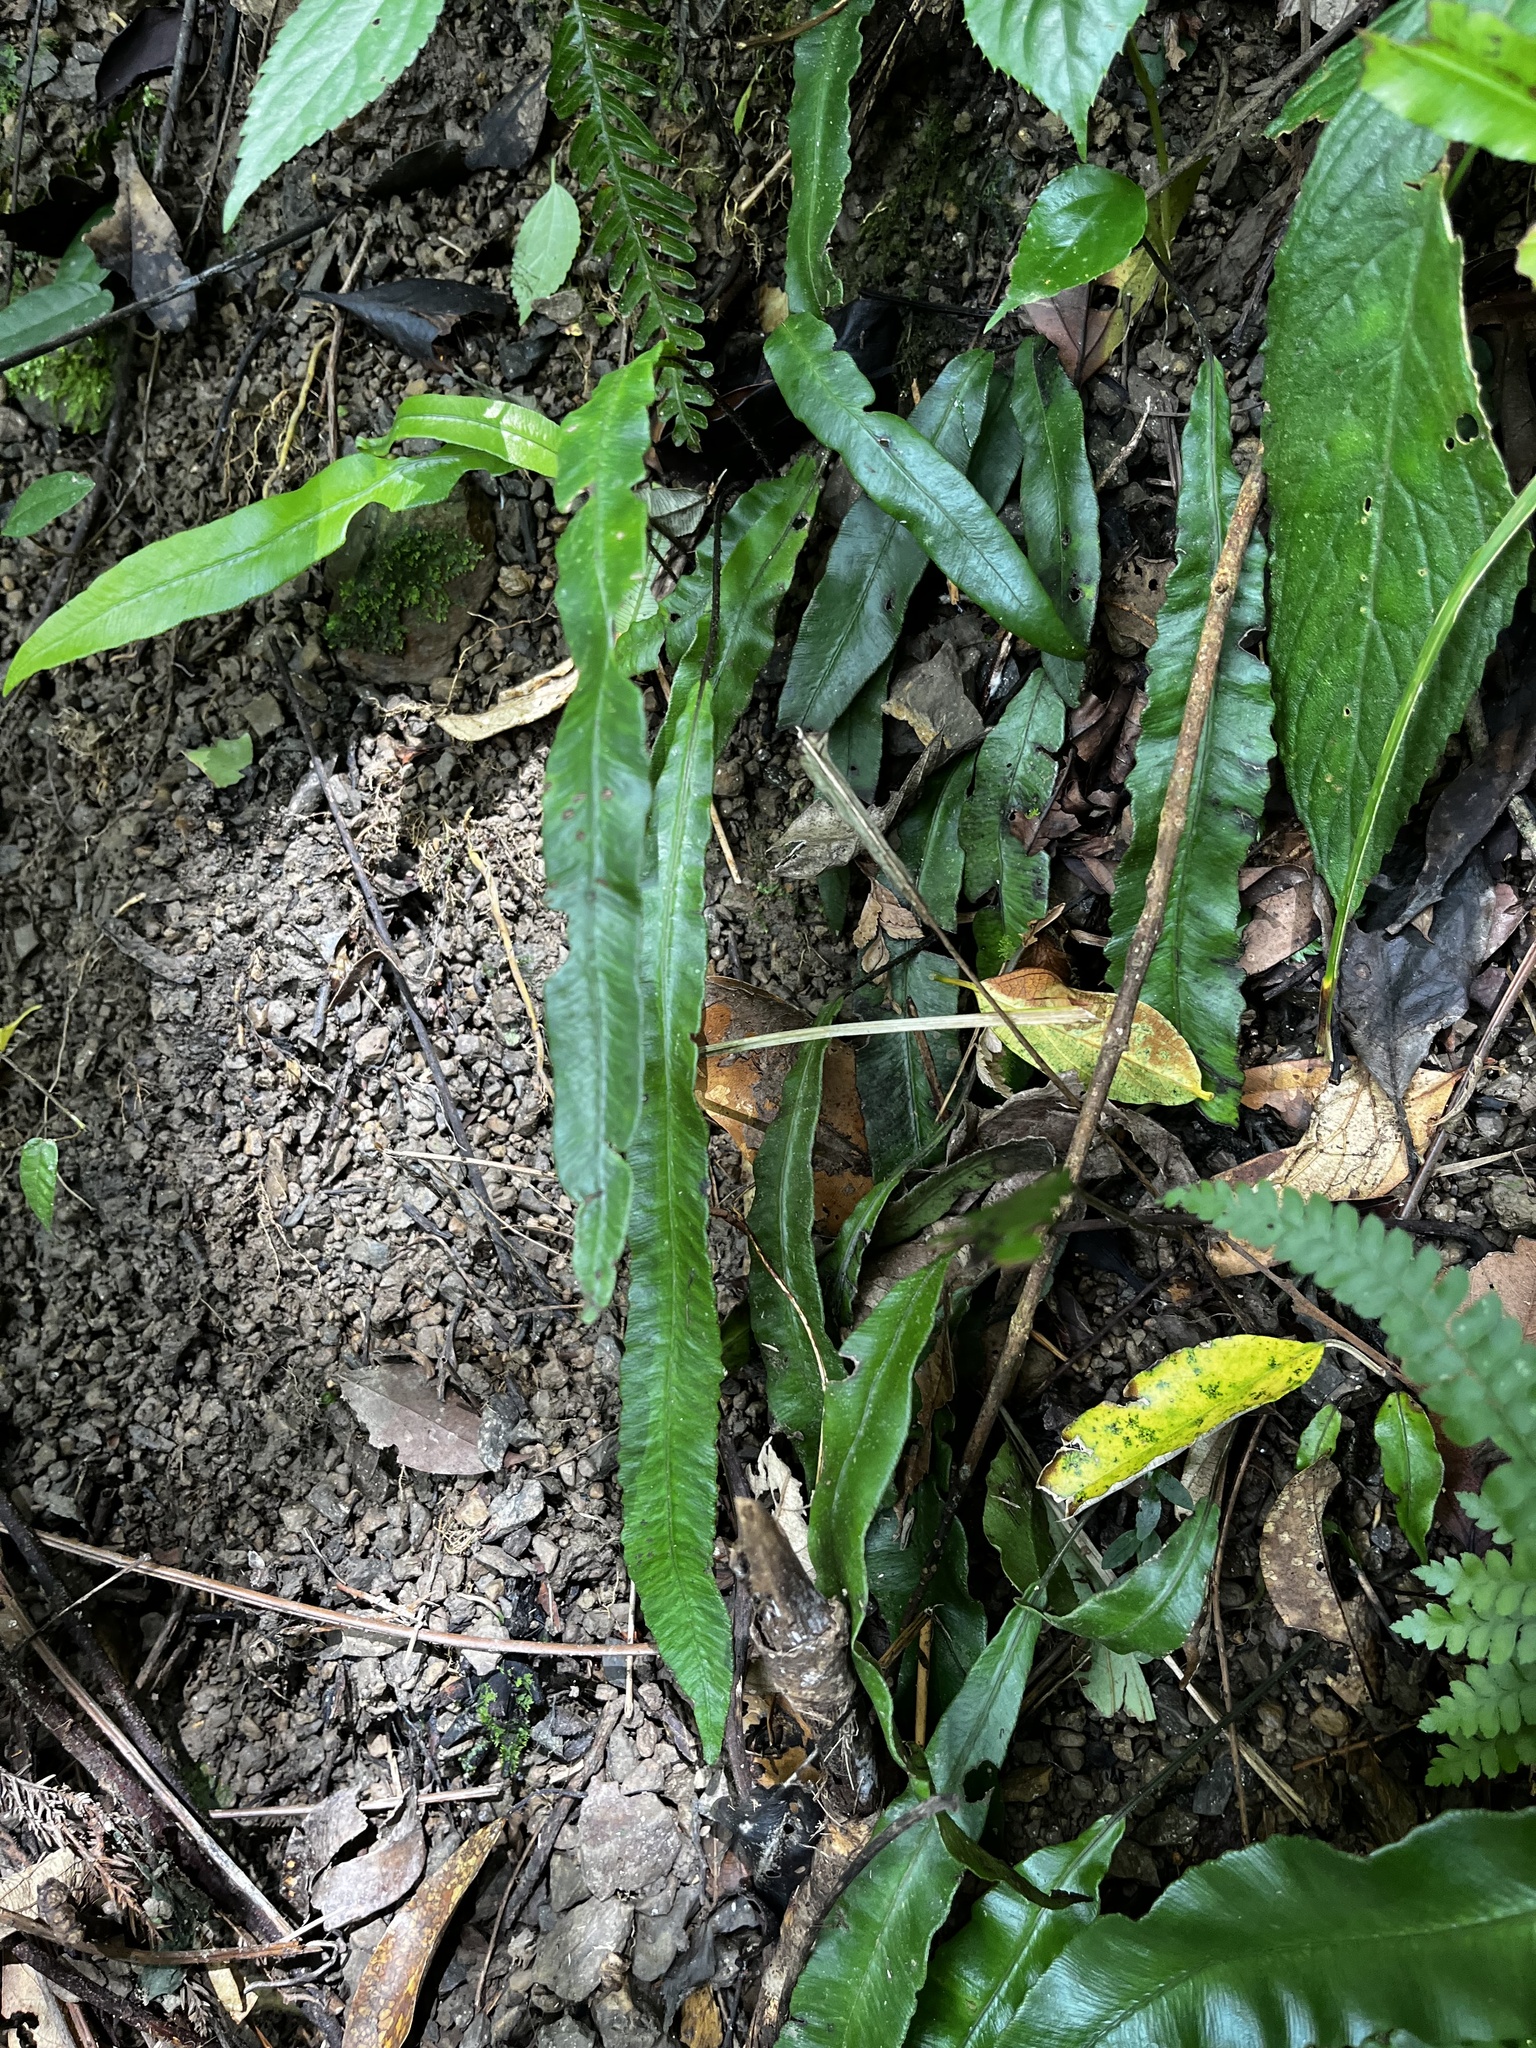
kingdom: Plantae
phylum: Tracheophyta
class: Polypodiopsida
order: Polypodiales
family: Athyriaceae
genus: Deparia
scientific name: Deparia lancea
